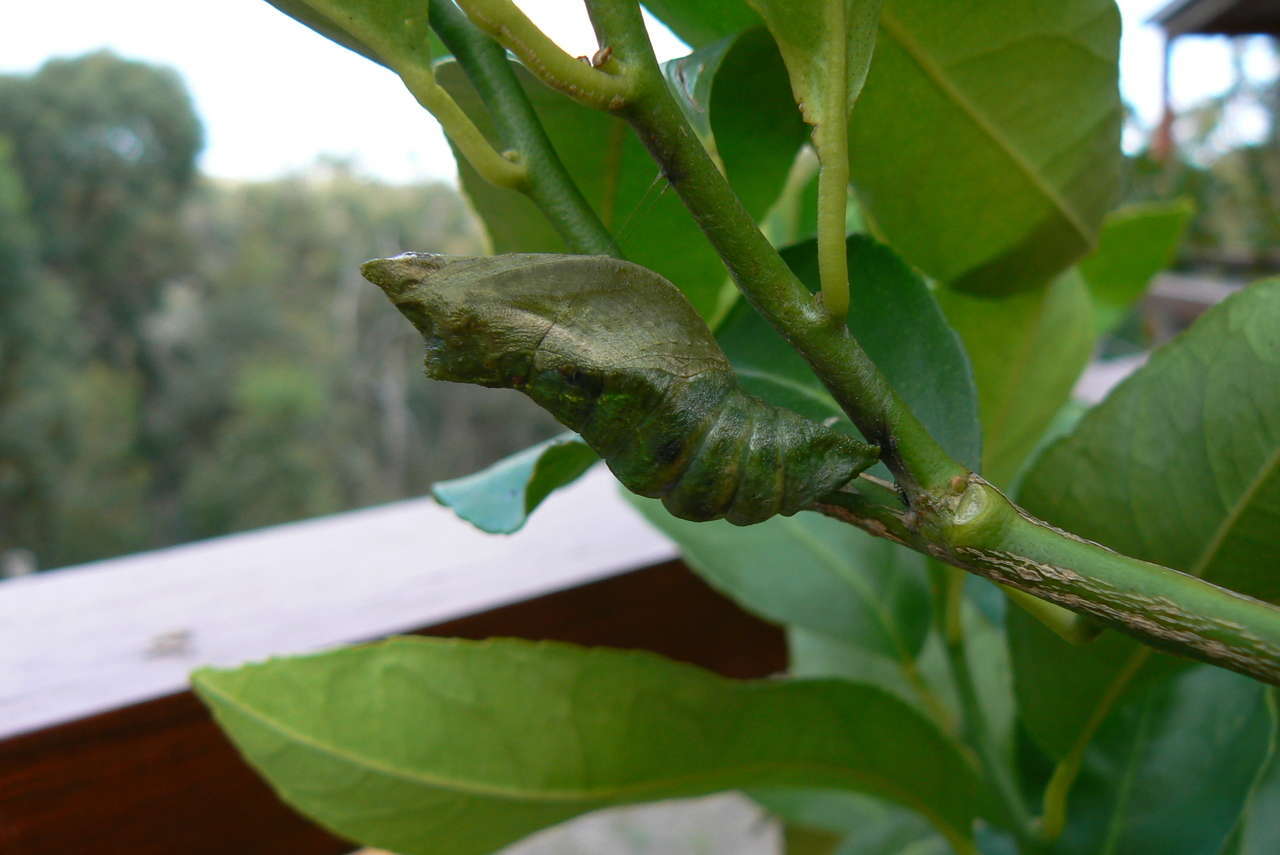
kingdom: Animalia
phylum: Arthropoda
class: Insecta
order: Lepidoptera
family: Papilionidae
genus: Papilio
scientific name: Papilio aegeus
